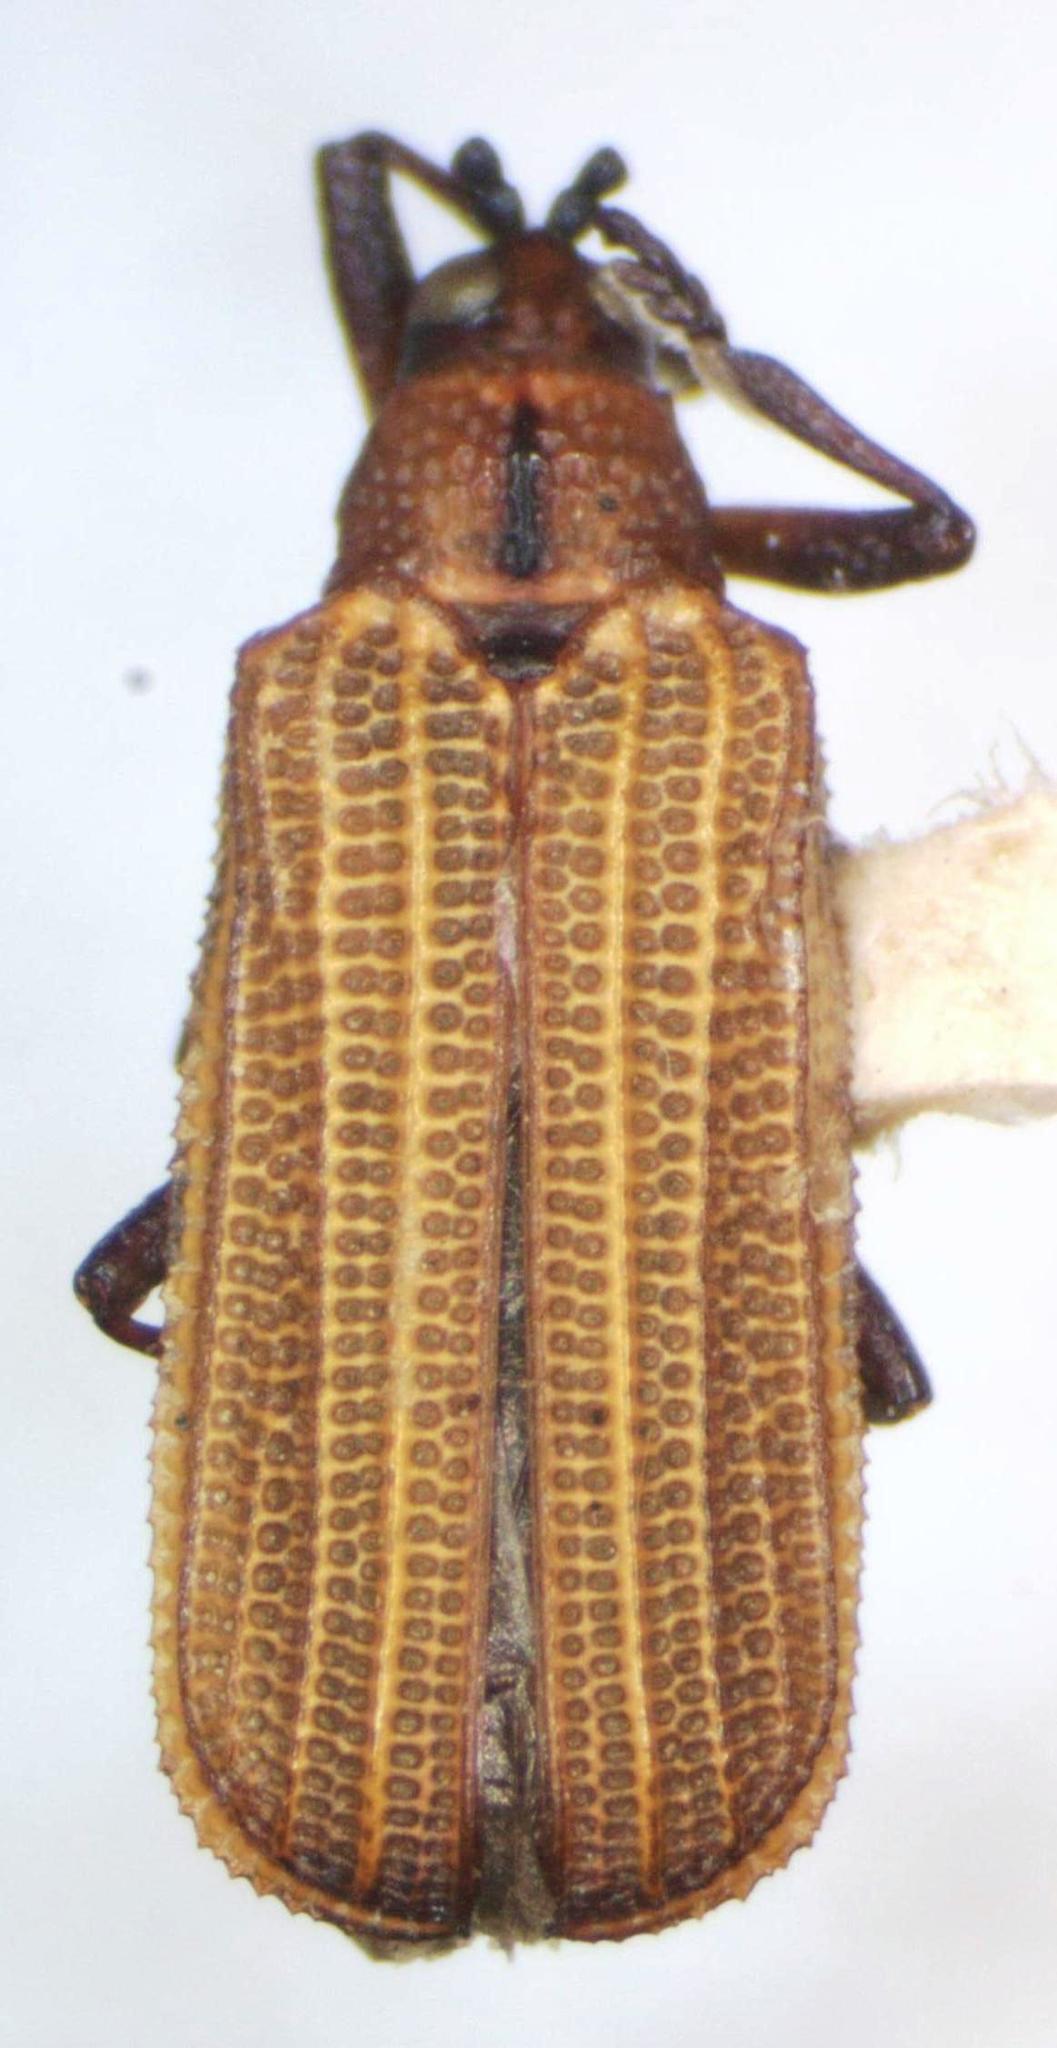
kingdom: Animalia
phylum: Arthropoda
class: Insecta
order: Coleoptera
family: Chrysomelidae
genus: Chalepus
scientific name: Chalepus
